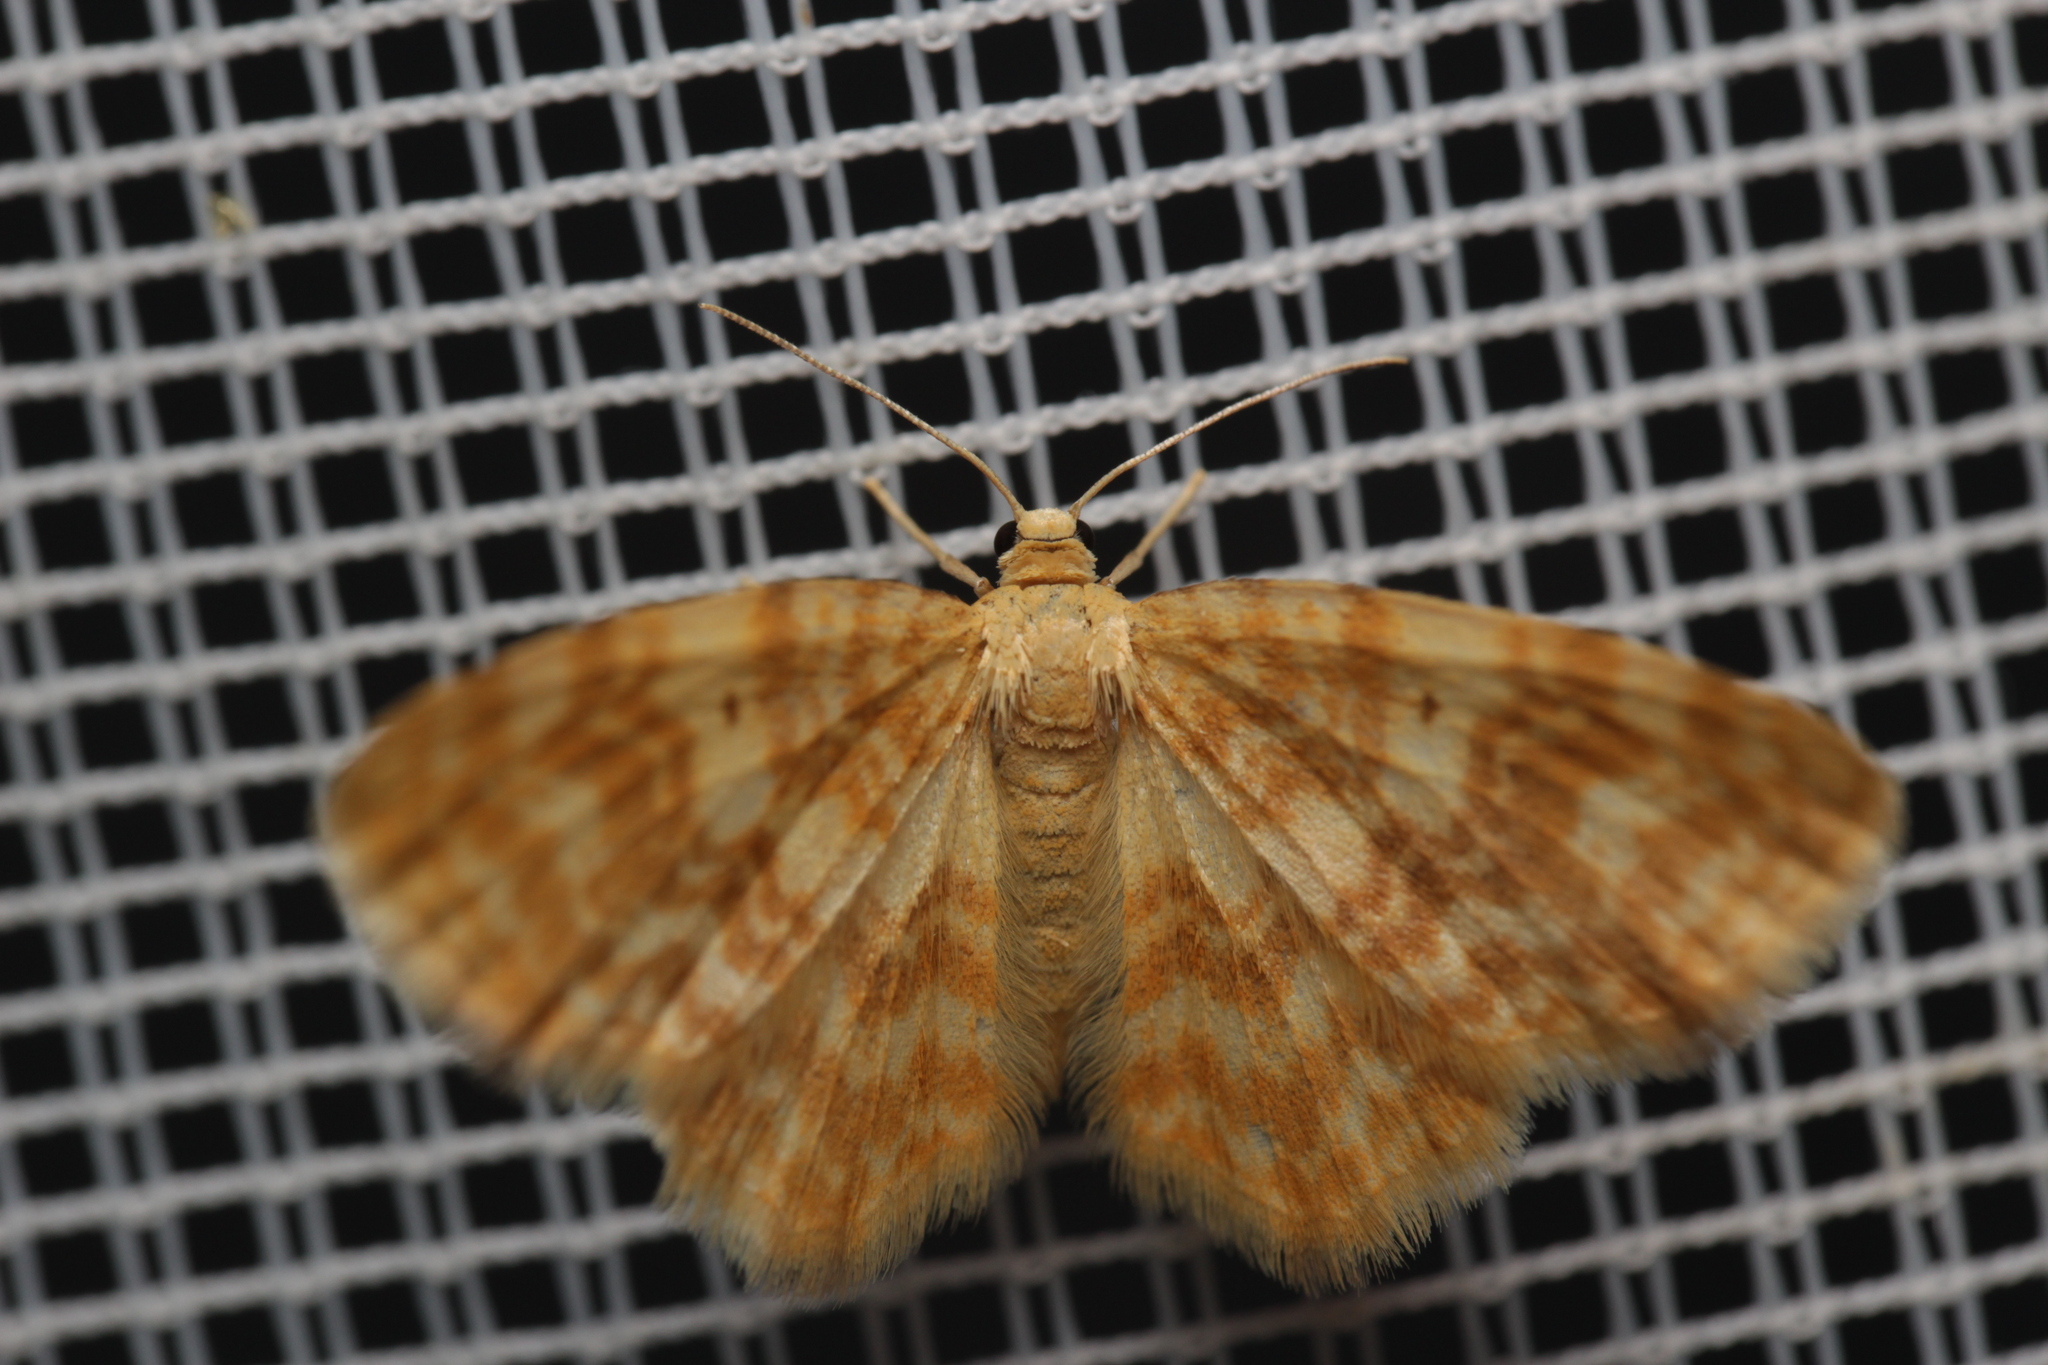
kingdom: Animalia
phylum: Arthropoda
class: Insecta
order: Lepidoptera
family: Geometridae
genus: Hydrelia
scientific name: Hydrelia flammeolaria
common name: Small yellow wave
